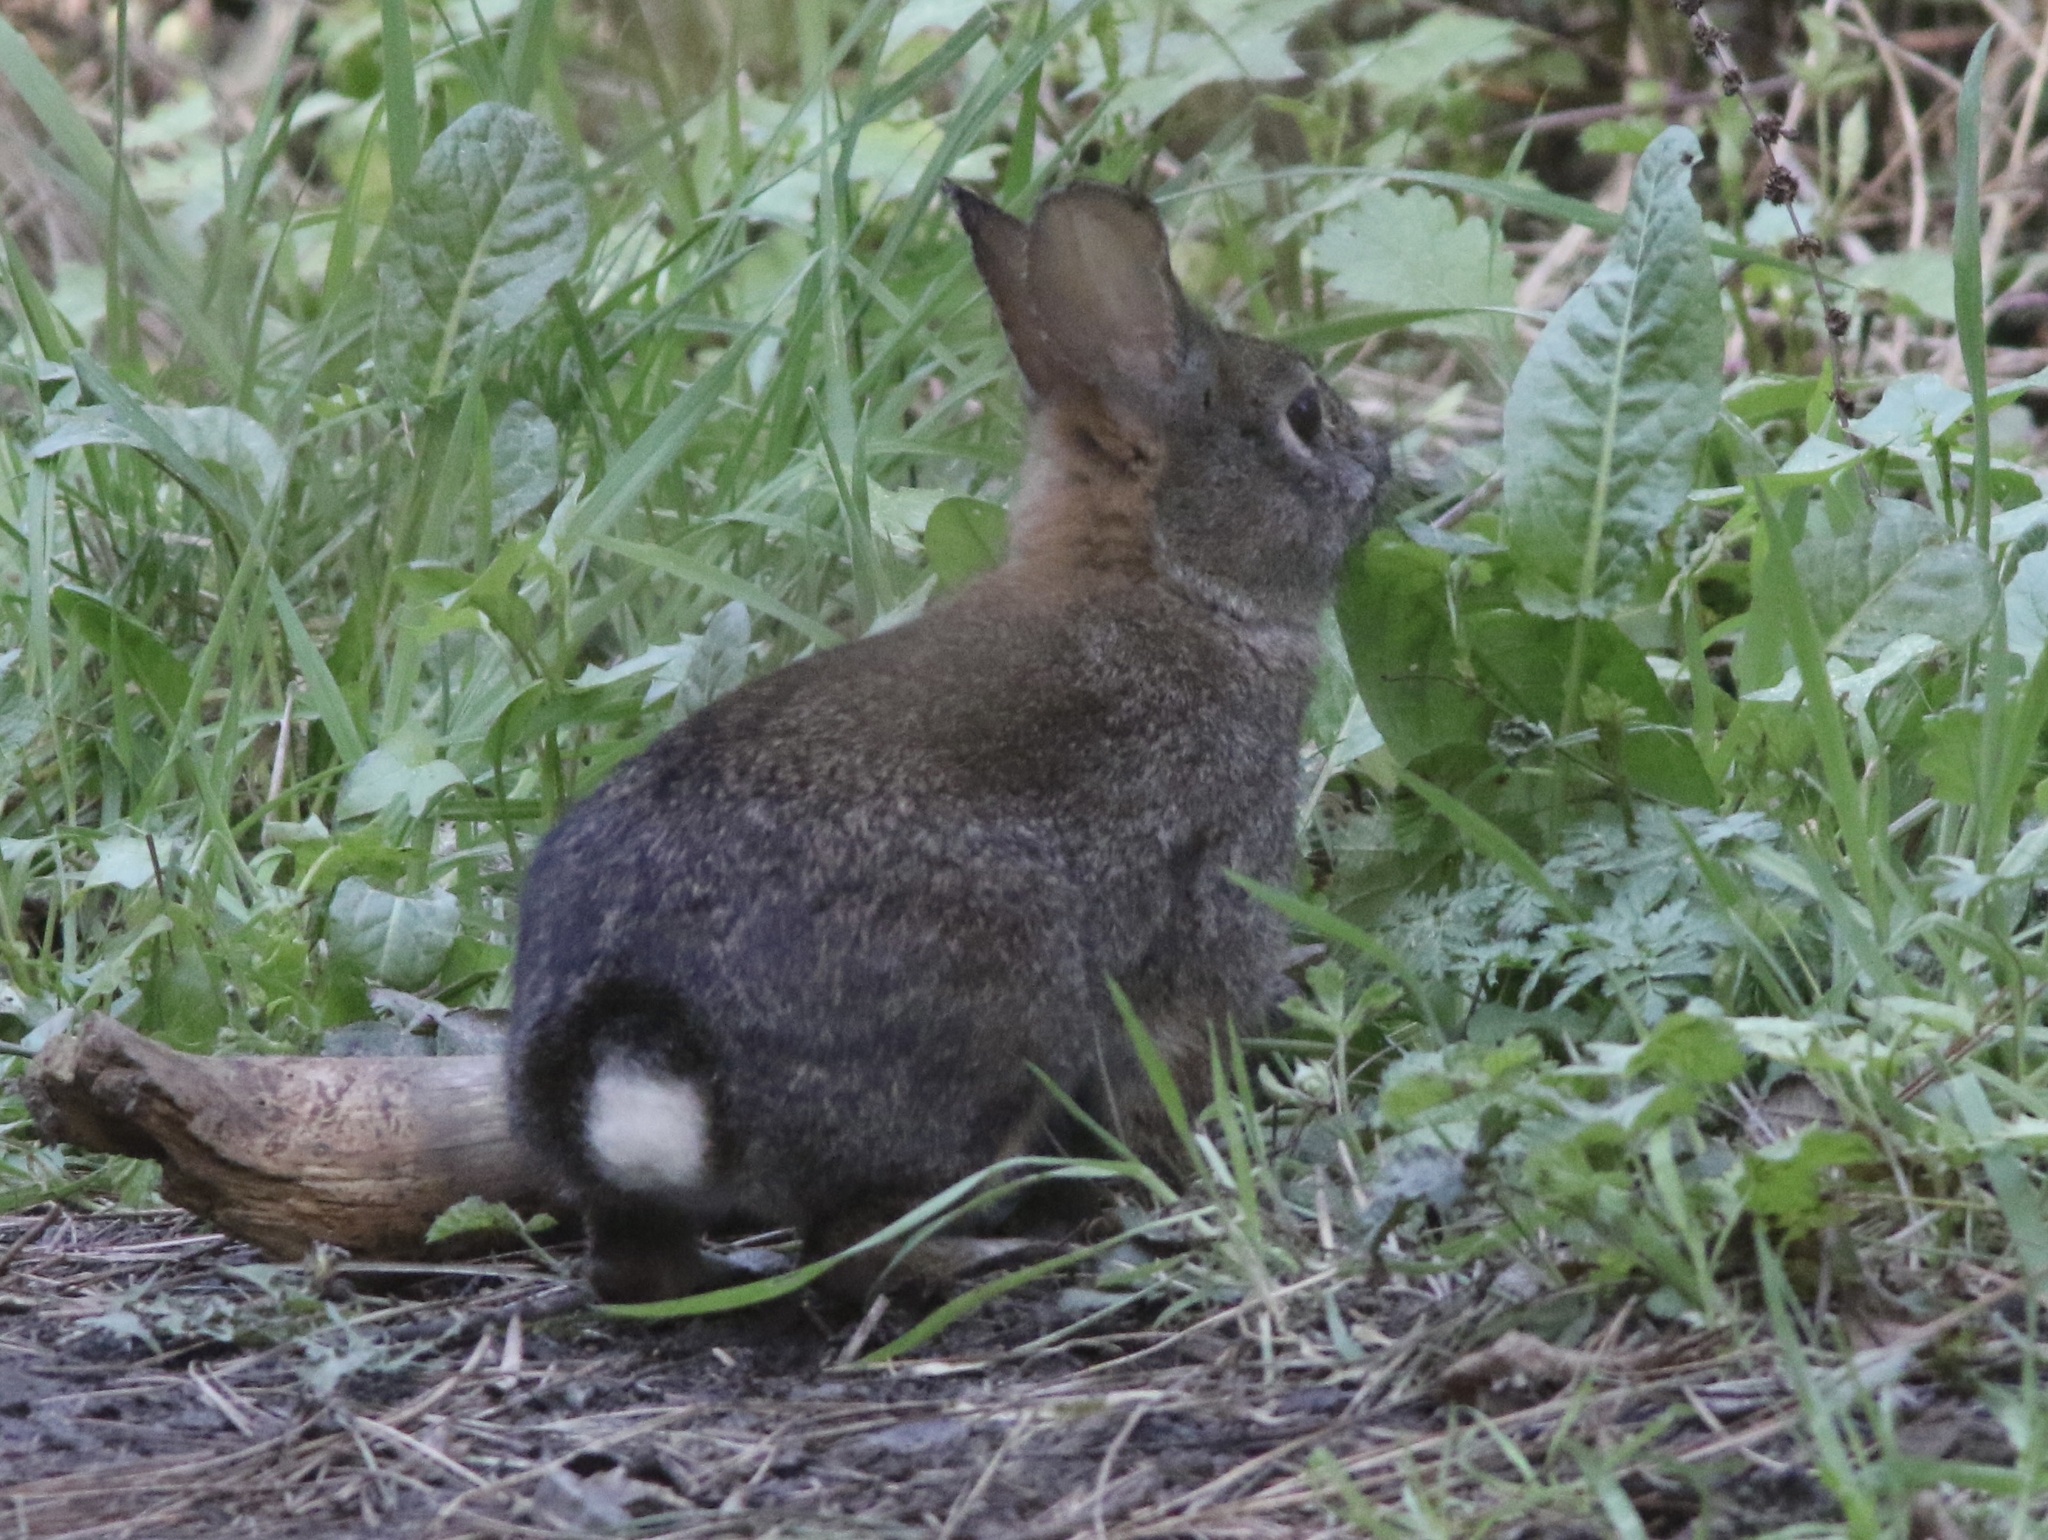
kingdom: Animalia
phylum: Chordata
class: Mammalia
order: Lagomorpha
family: Leporidae
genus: Sylvilagus
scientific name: Sylvilagus bachmani
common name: Brush rabbit
